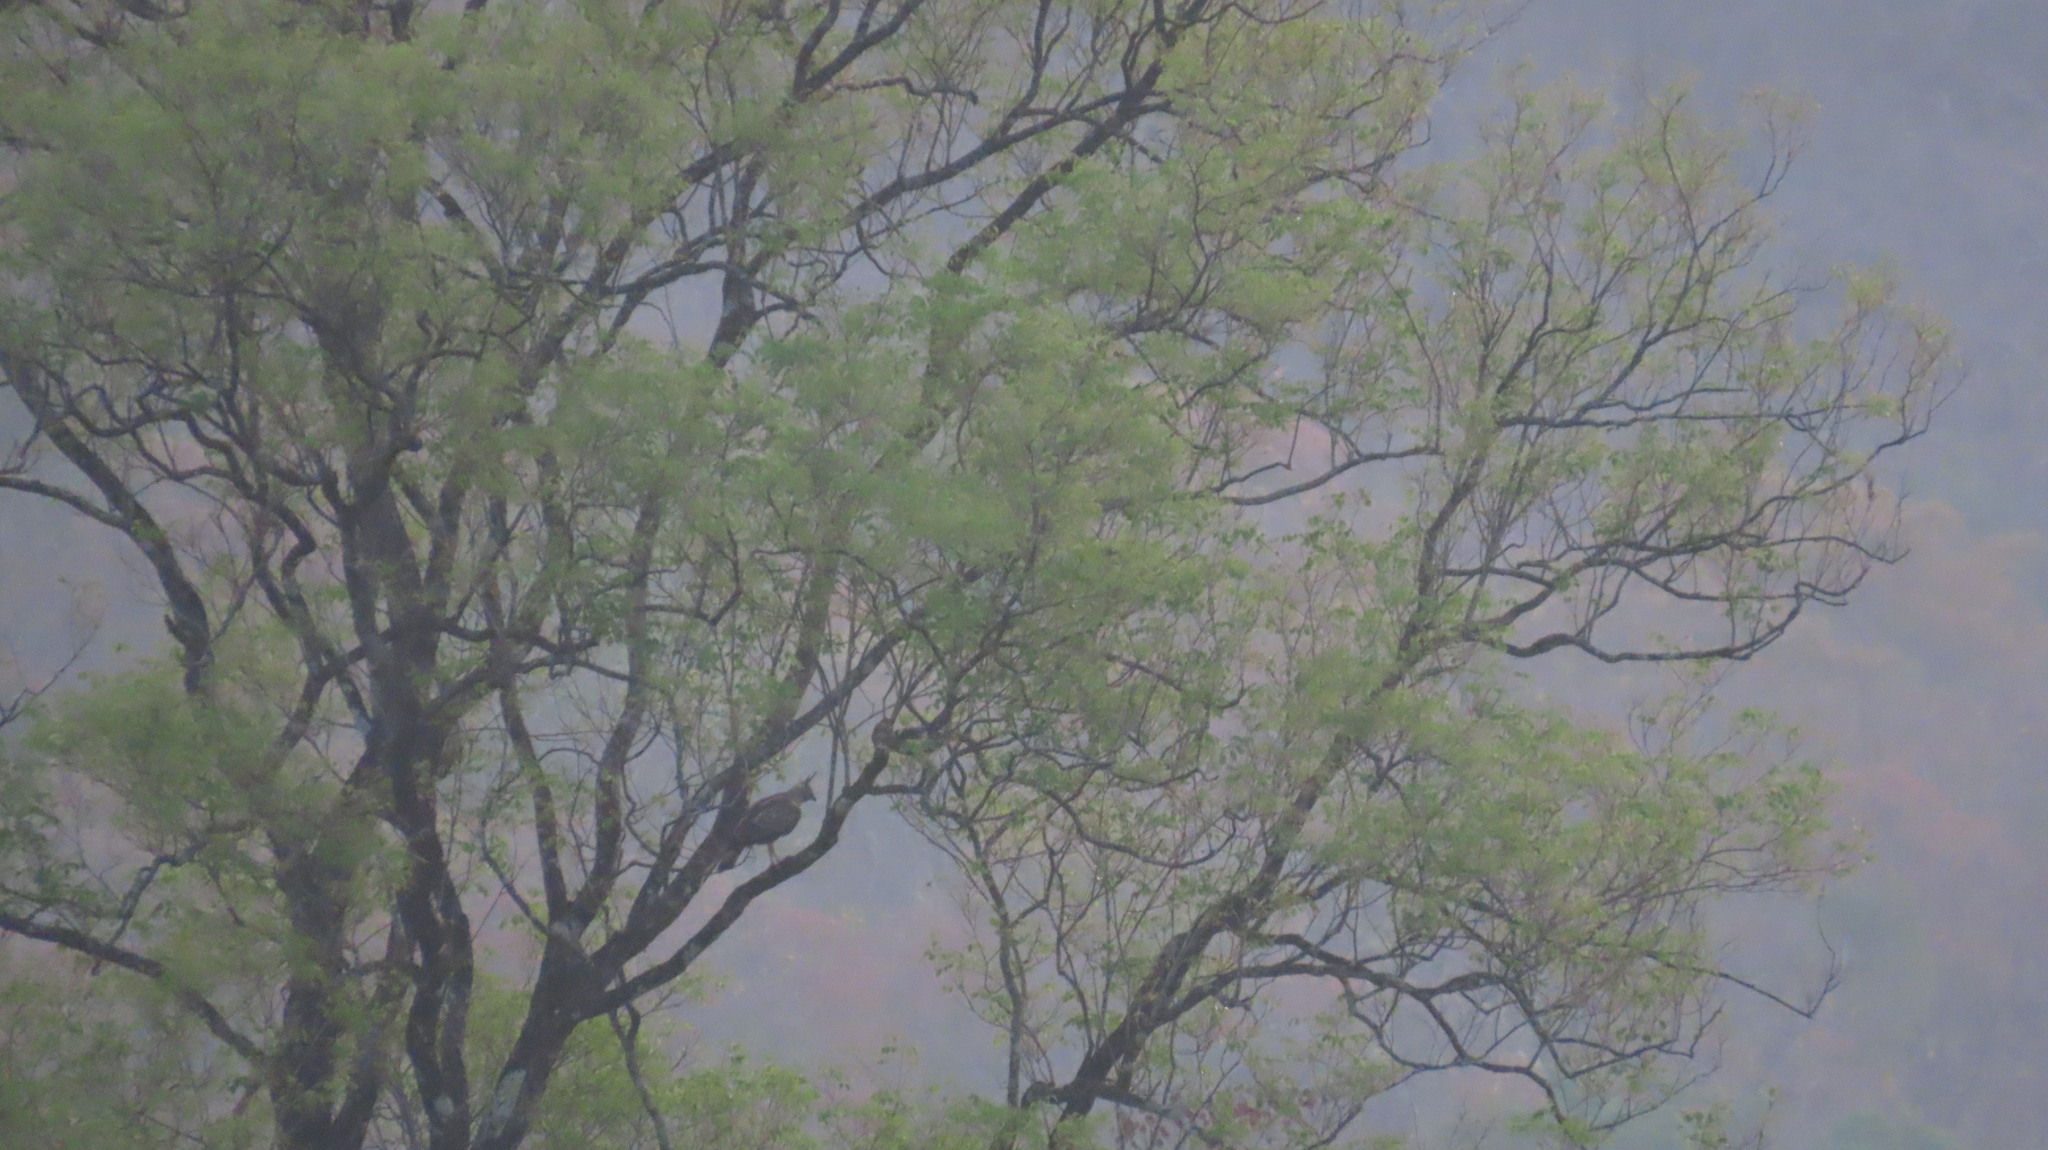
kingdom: Animalia
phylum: Chordata
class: Aves
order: Accipitriformes
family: Accipitridae
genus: Nisaetus
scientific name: Nisaetus cirrhatus
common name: Changeable hawk-eagle
